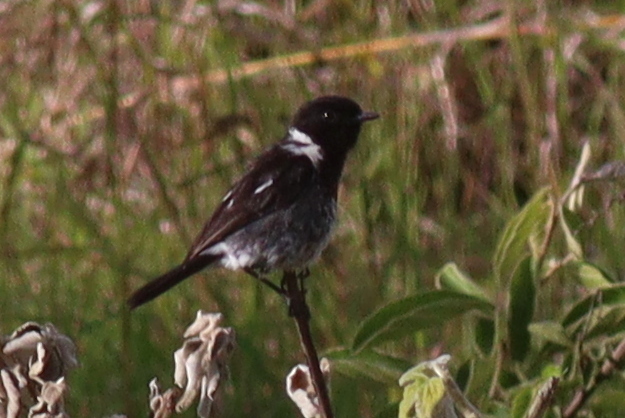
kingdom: Animalia
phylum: Chordata
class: Aves
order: Passeriformes
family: Muscicapidae
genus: Saxicola
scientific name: Saxicola torquatus
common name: African stonechat
